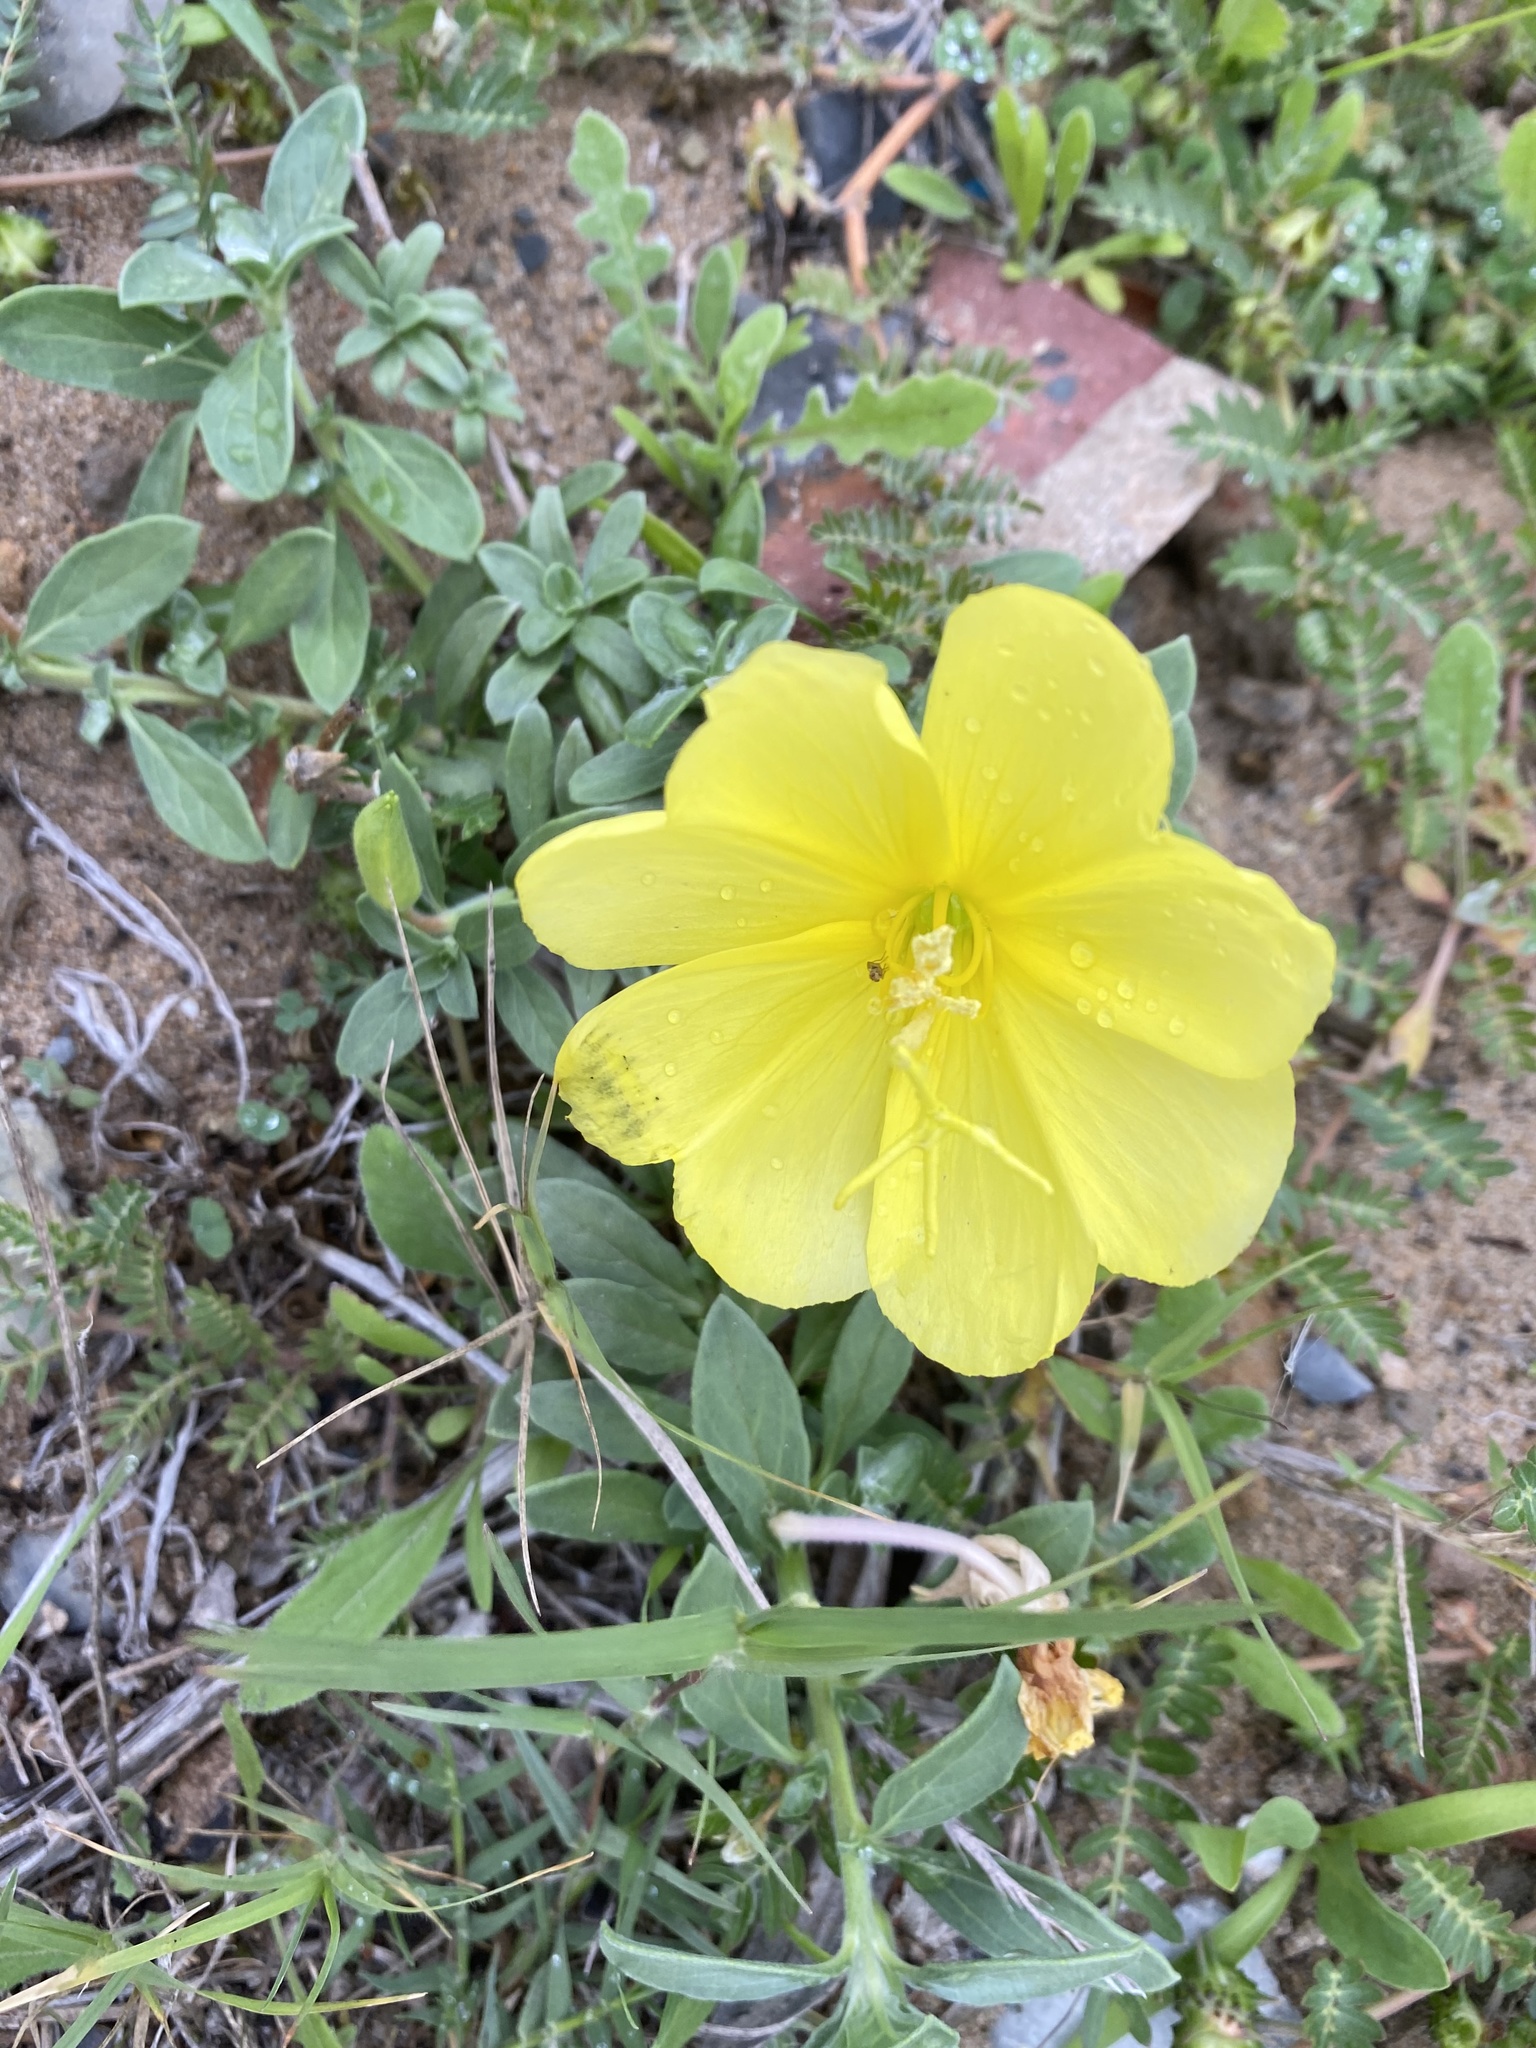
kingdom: Plantae
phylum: Tracheophyta
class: Magnoliopsida
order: Myrtales
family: Onagraceae
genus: Oenothera
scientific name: Oenothera drummondii
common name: Beach evening-primrose
